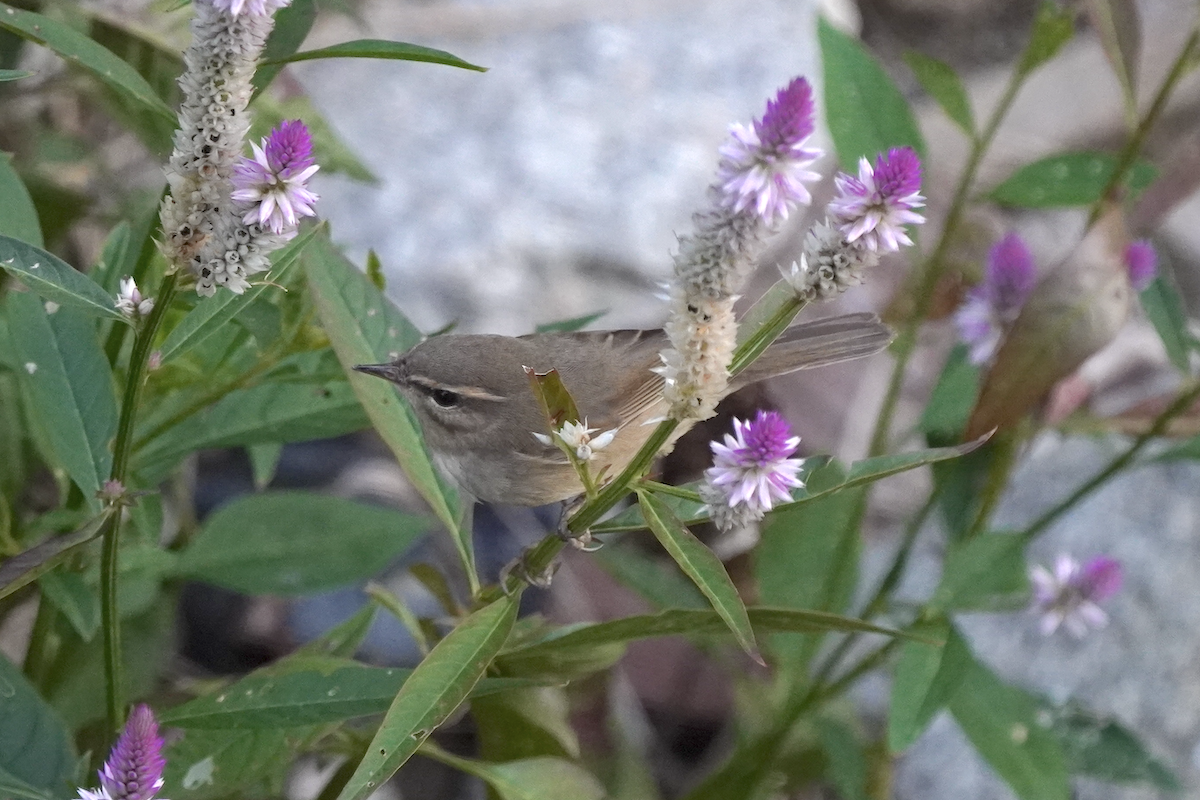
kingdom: Animalia
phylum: Chordata
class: Aves
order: Passeriformes
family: Phylloscopidae
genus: Phylloscopus
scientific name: Phylloscopus fuscatus
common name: Dusky warbler
